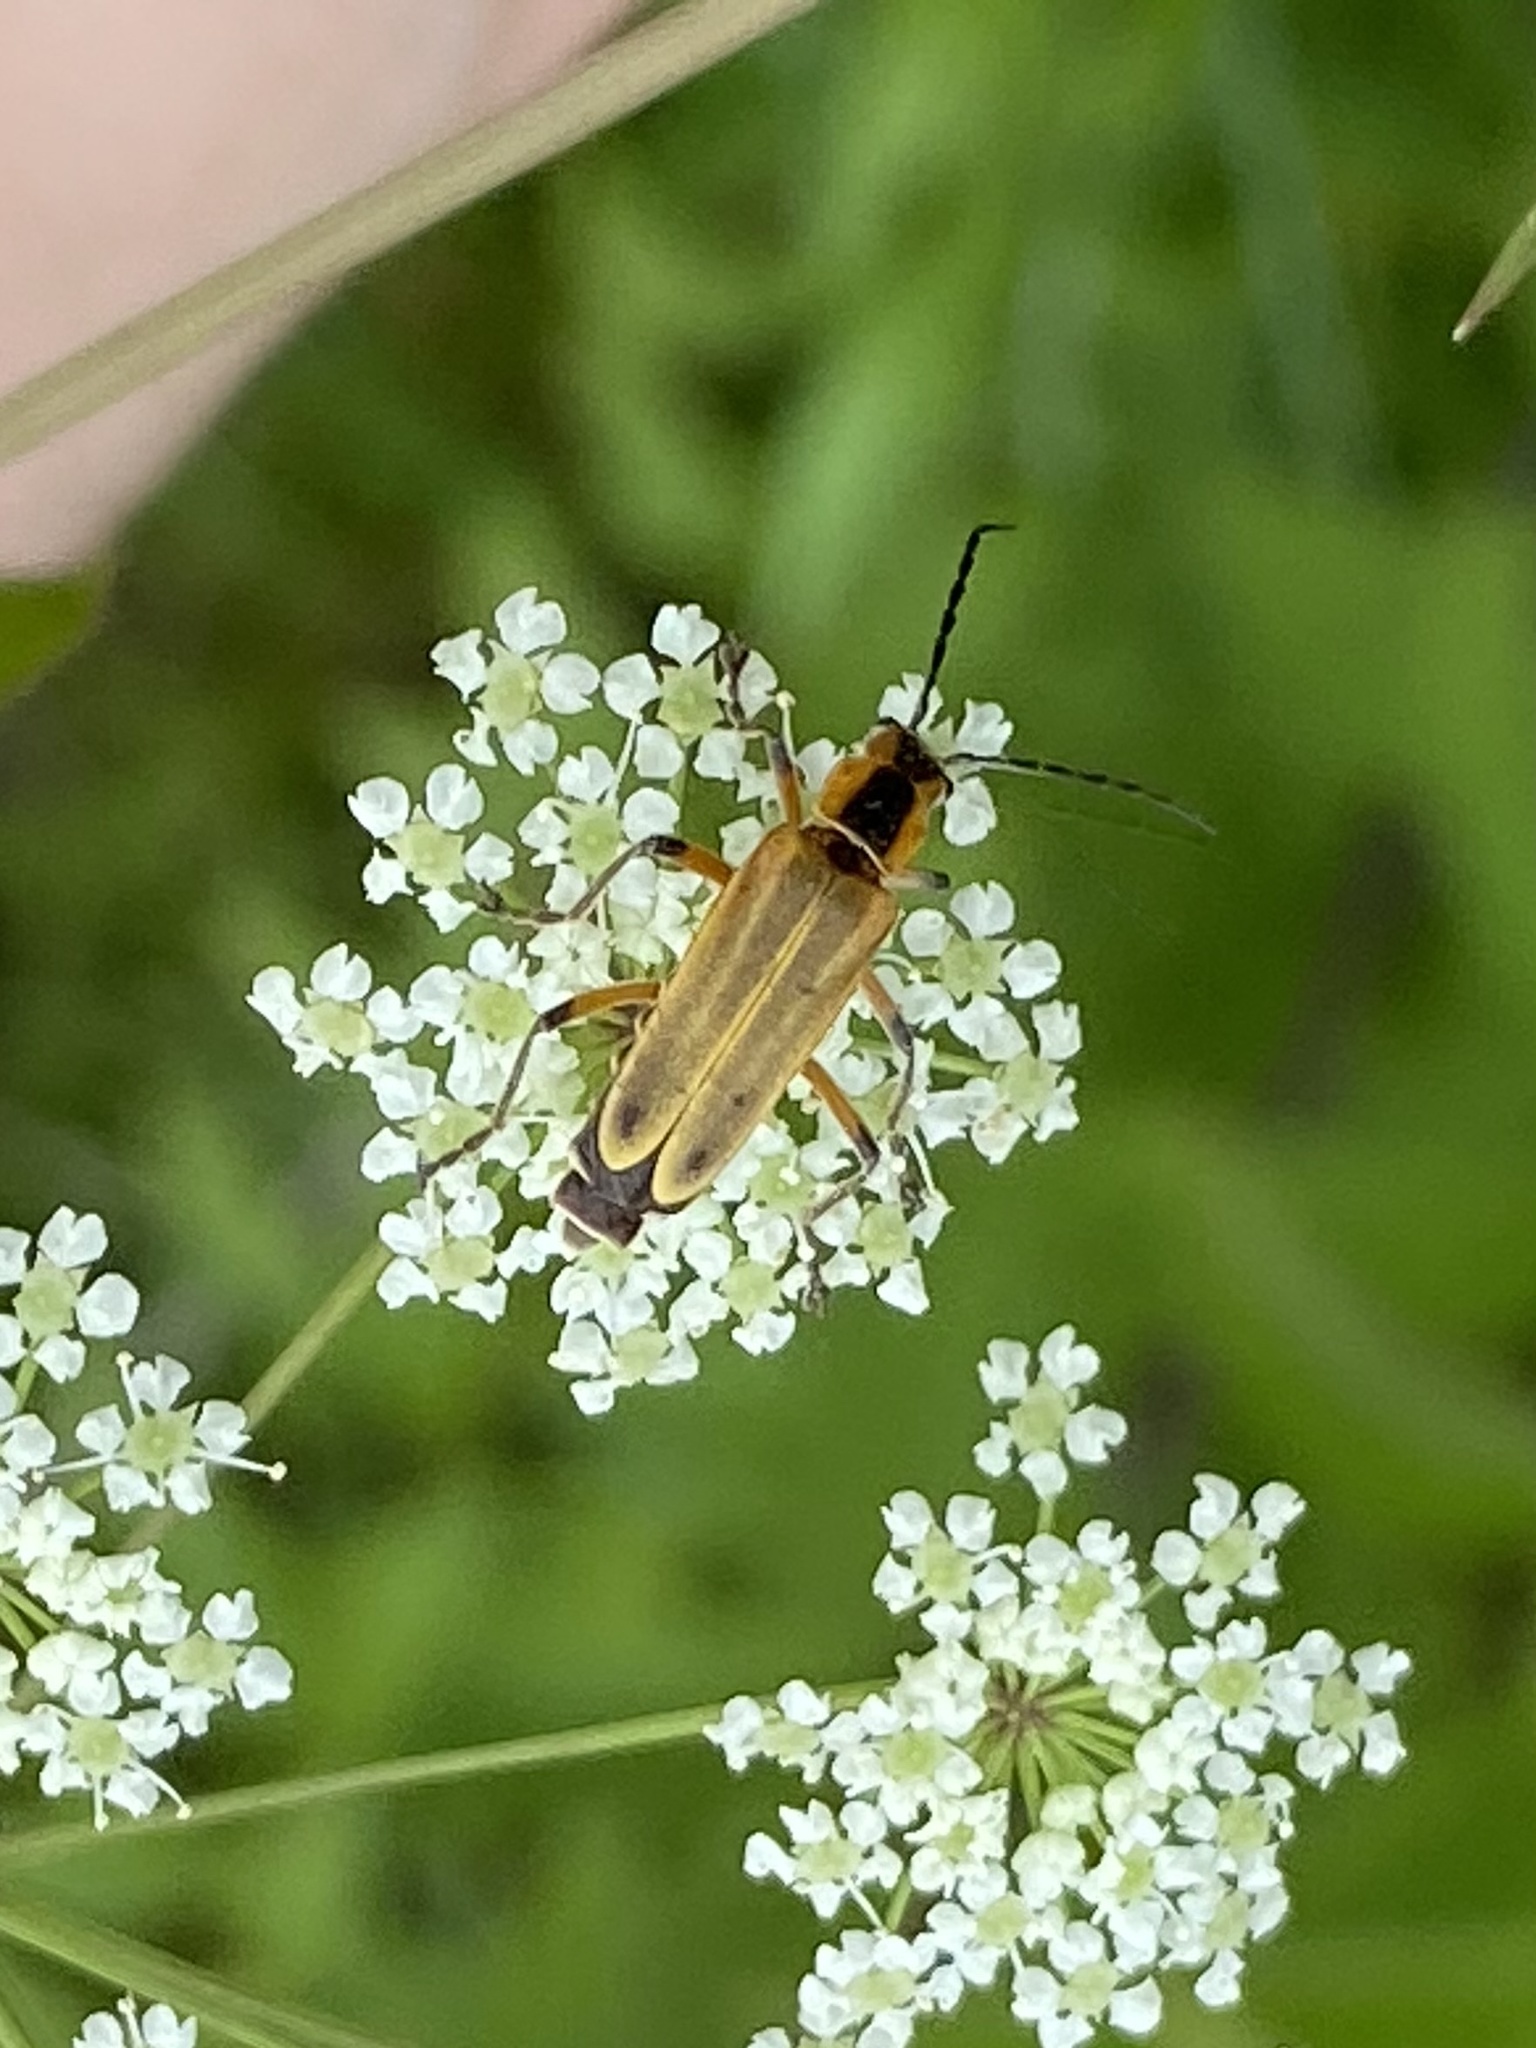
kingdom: Animalia
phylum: Arthropoda
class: Insecta
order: Coleoptera
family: Cantharidae
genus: Chauliognathus
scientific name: Chauliognathus marginatus
